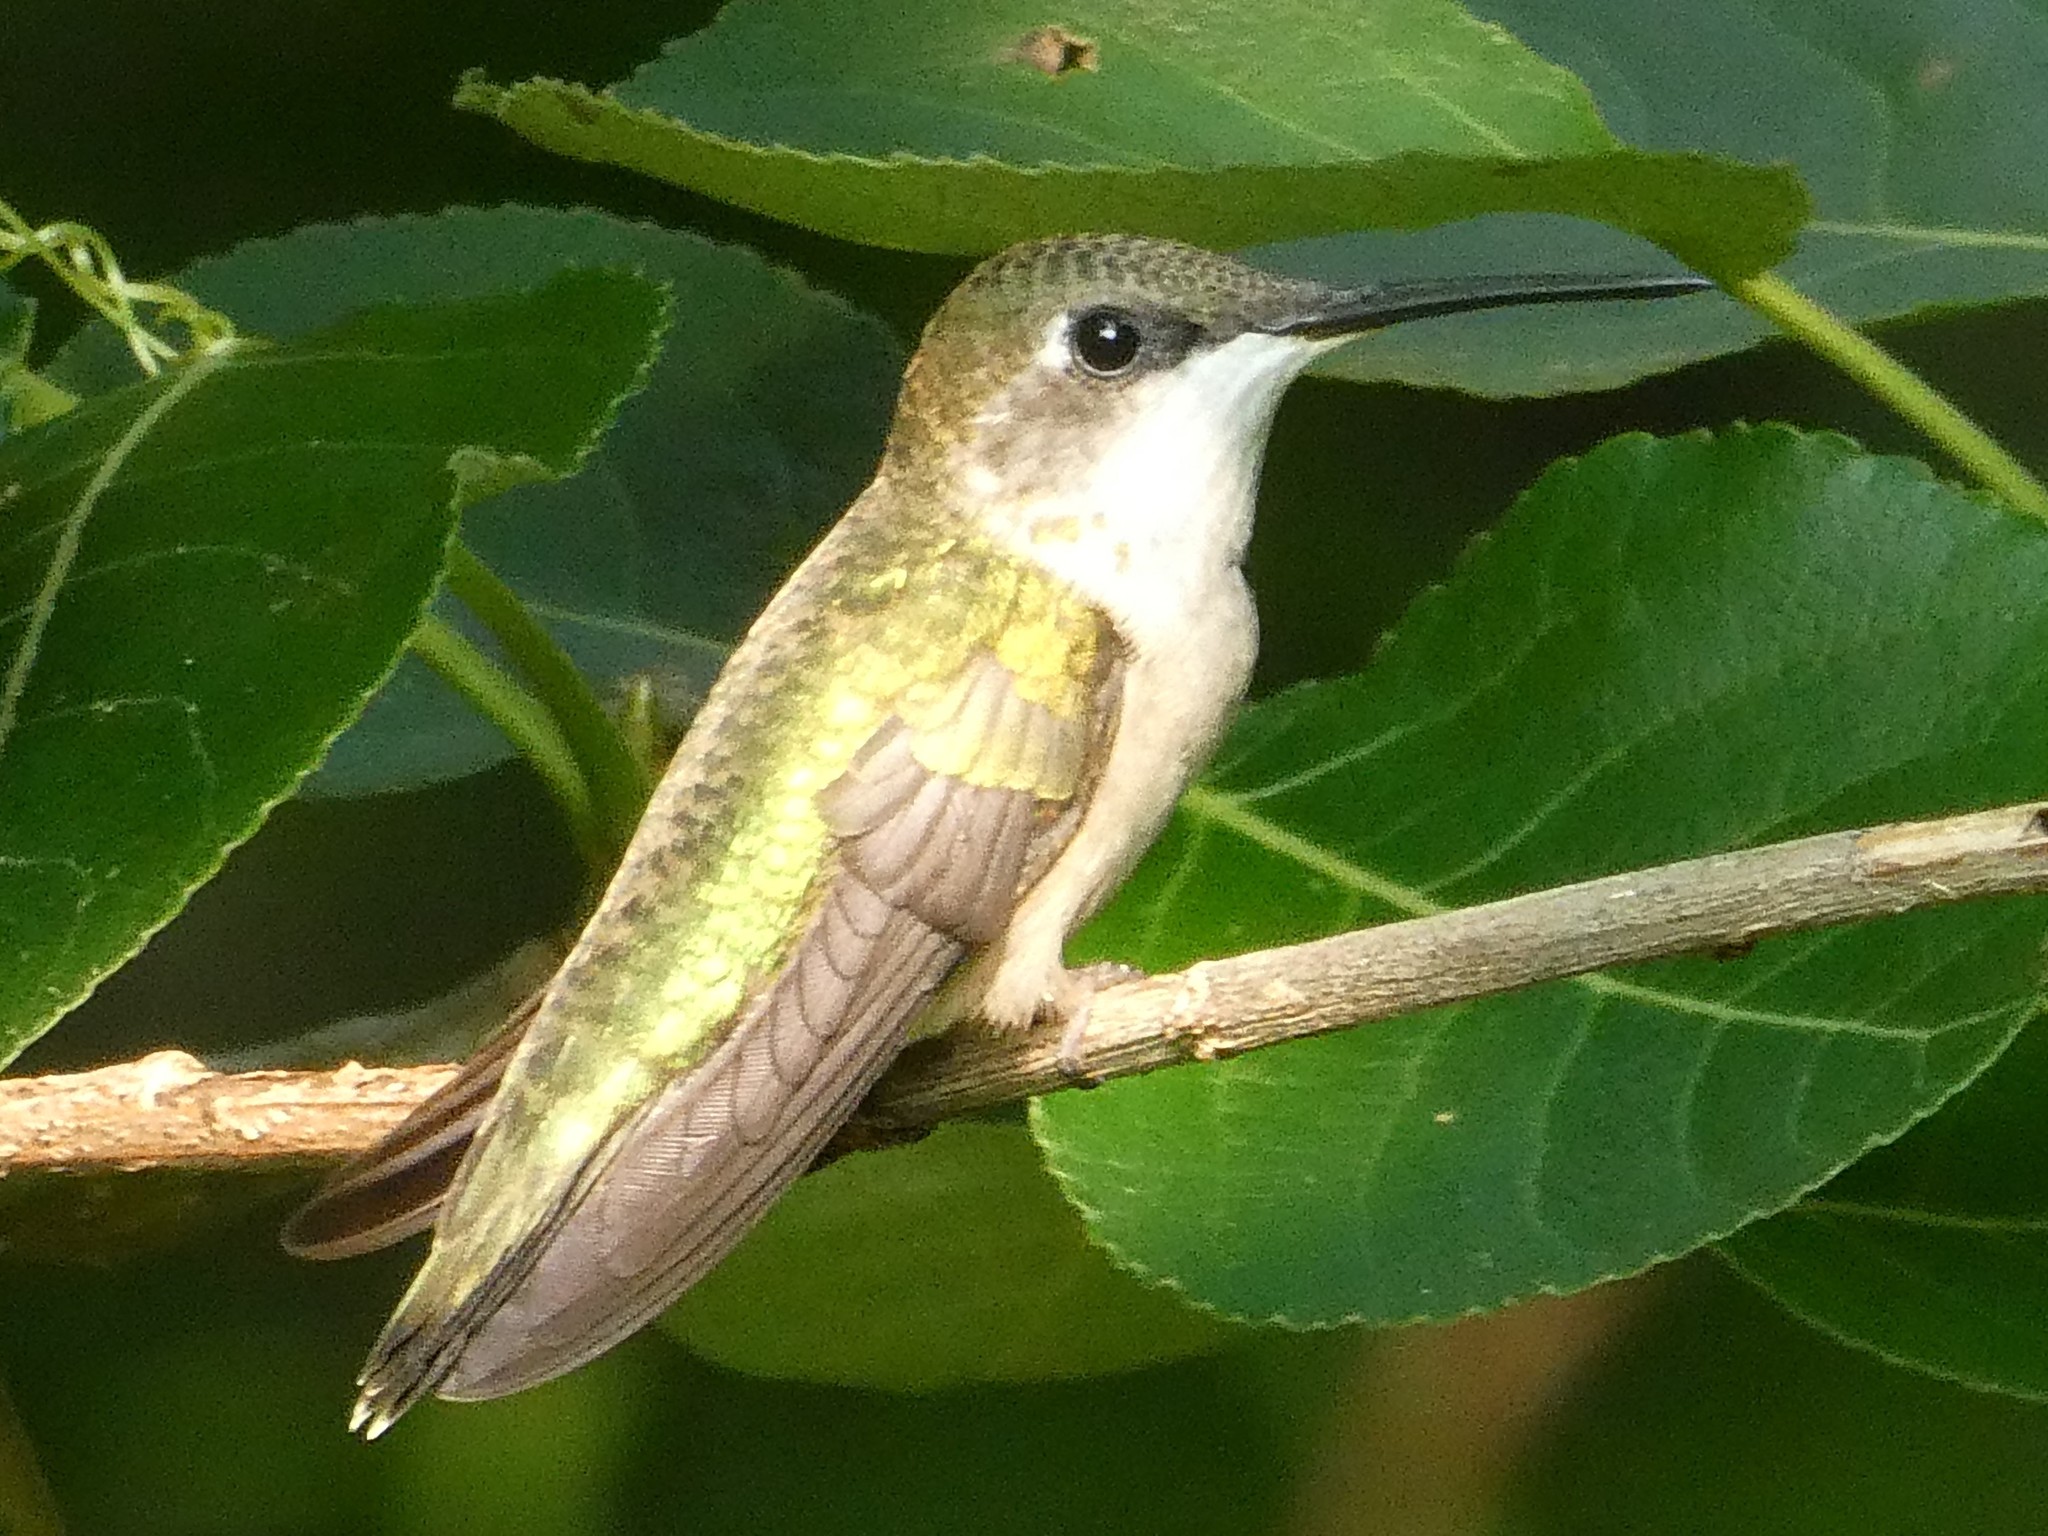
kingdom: Animalia
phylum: Chordata
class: Aves
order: Apodiformes
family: Trochilidae
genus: Archilochus
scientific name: Archilochus colubris
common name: Ruby-throated hummingbird
